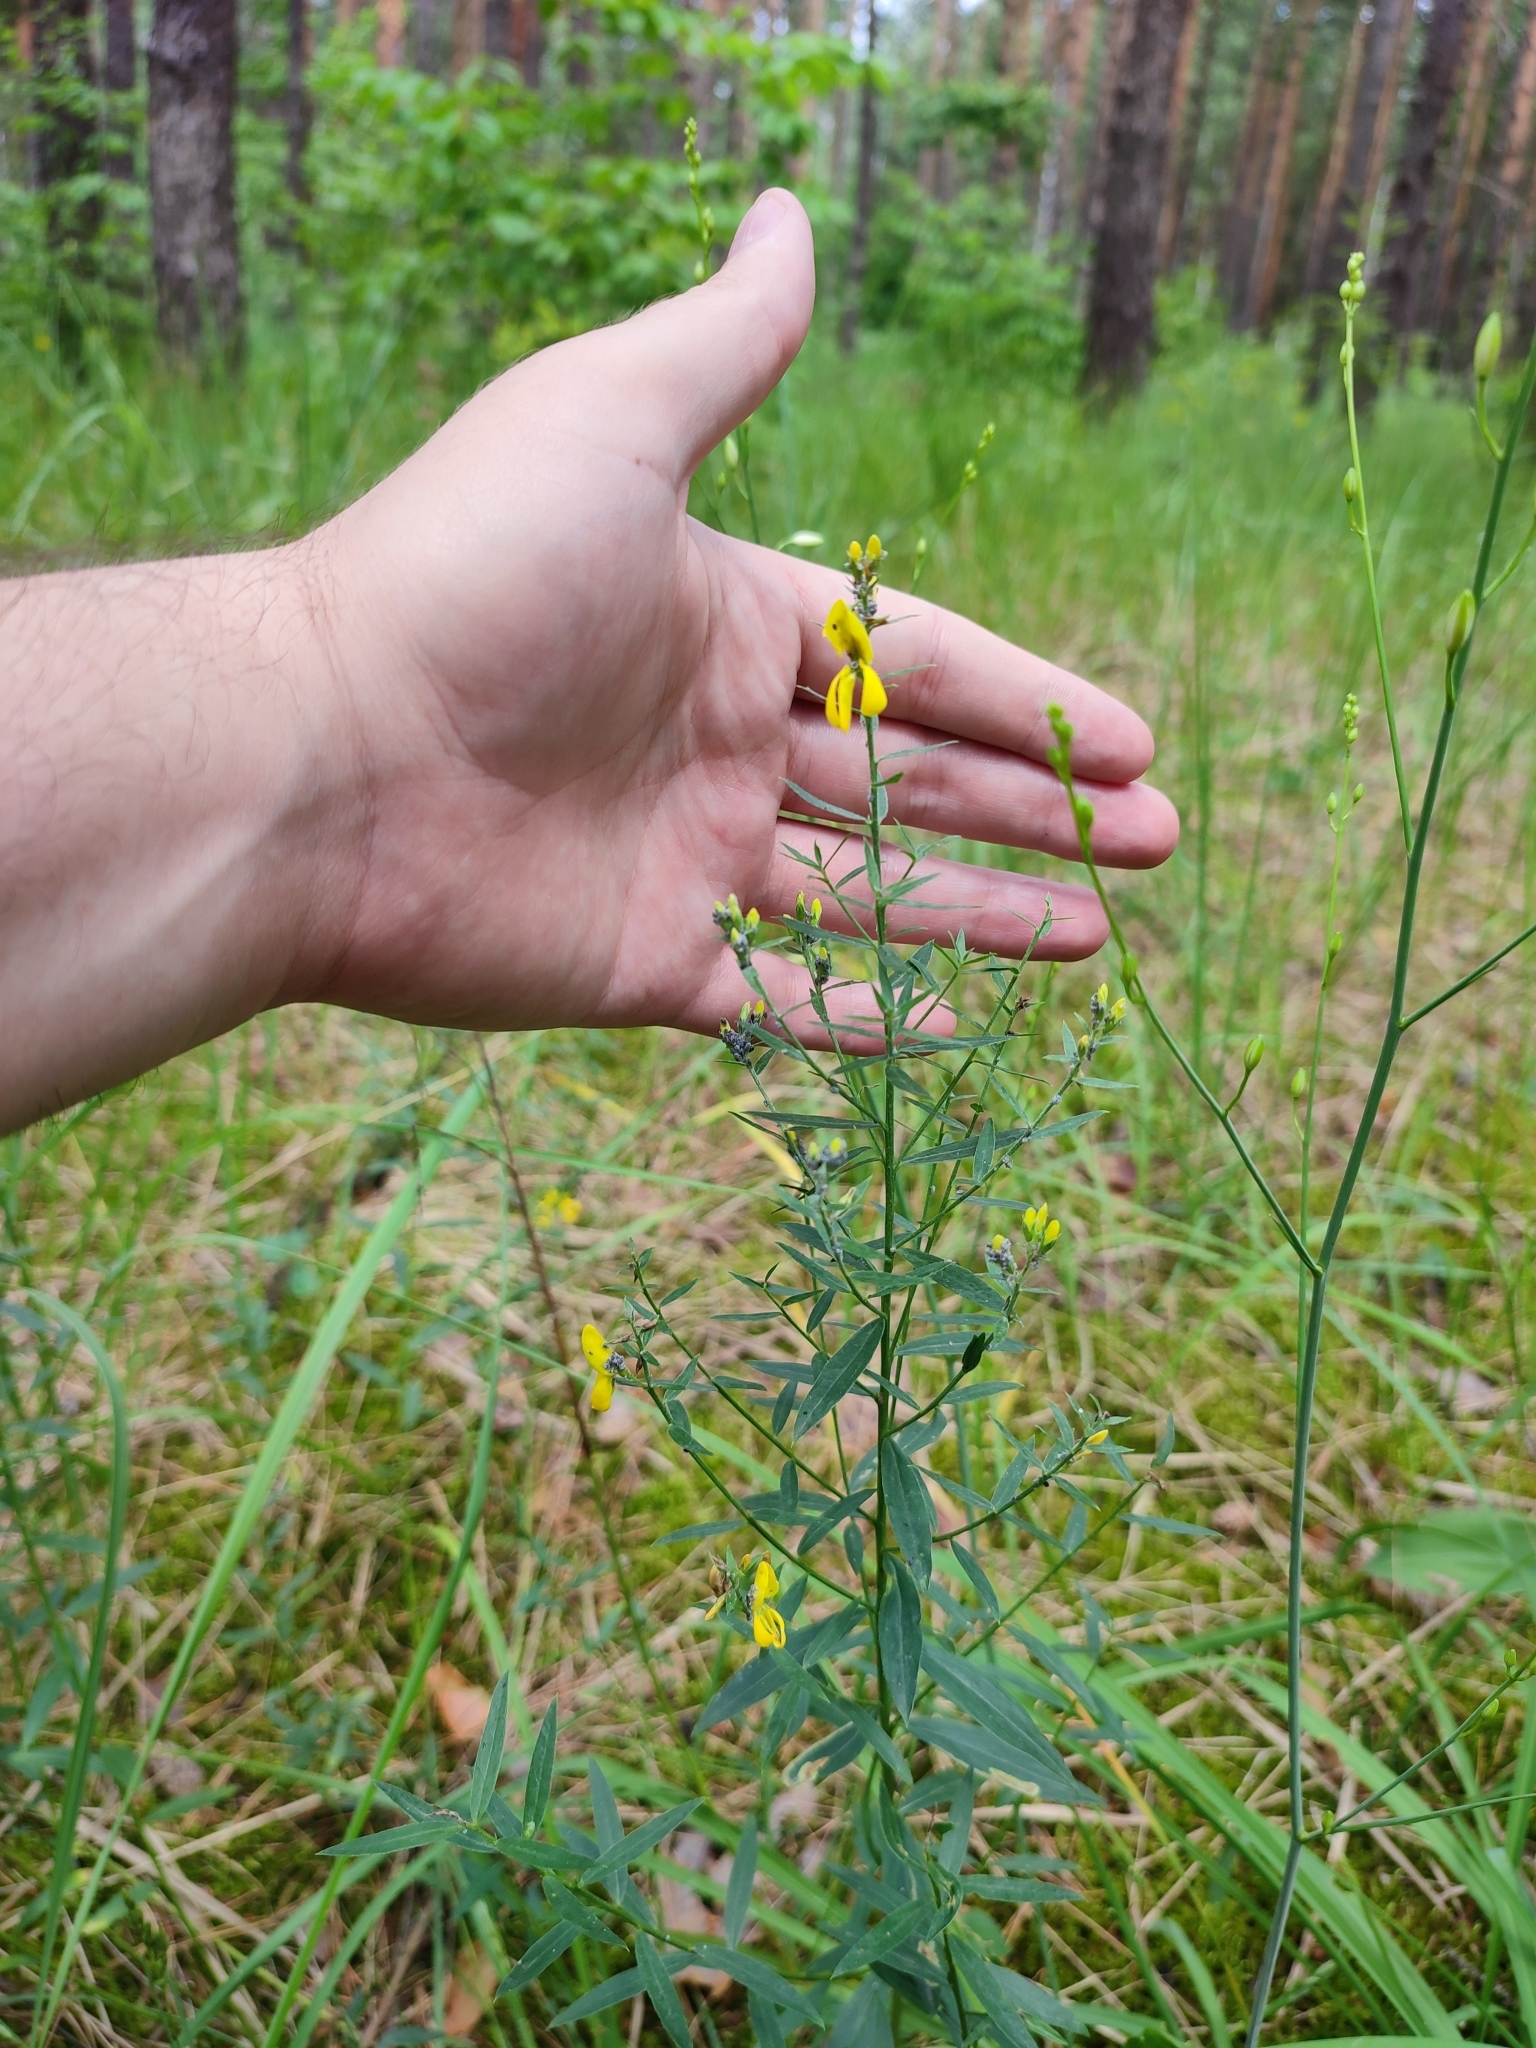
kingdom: Plantae
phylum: Tracheophyta
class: Magnoliopsida
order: Fabales
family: Fabaceae
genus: Genista
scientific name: Genista tinctoria
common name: Dyer's greenweed
